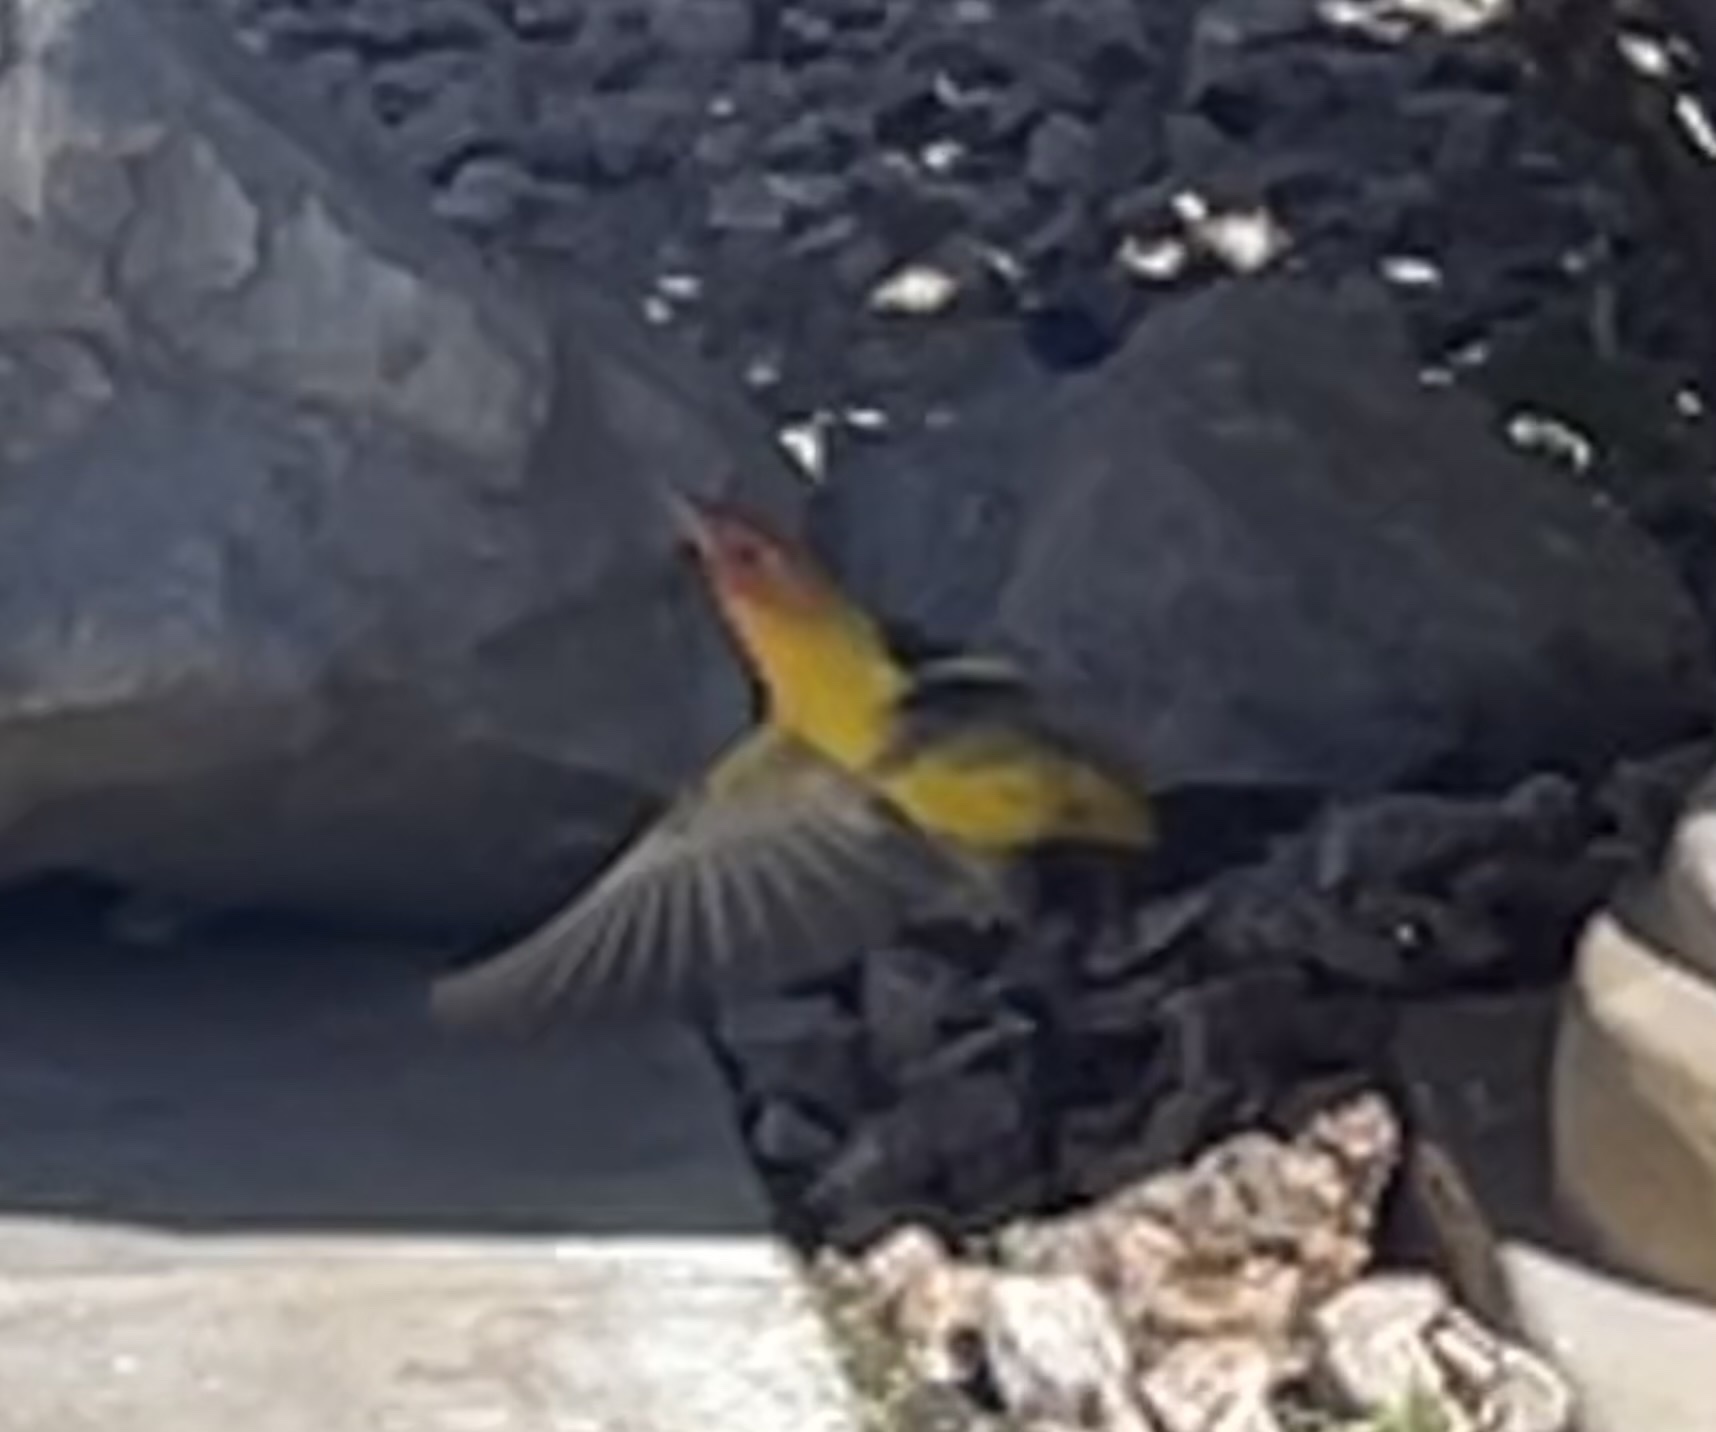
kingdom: Animalia
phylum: Chordata
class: Aves
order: Passeriformes
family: Cardinalidae
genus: Piranga
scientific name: Piranga ludoviciana
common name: Western tanager
